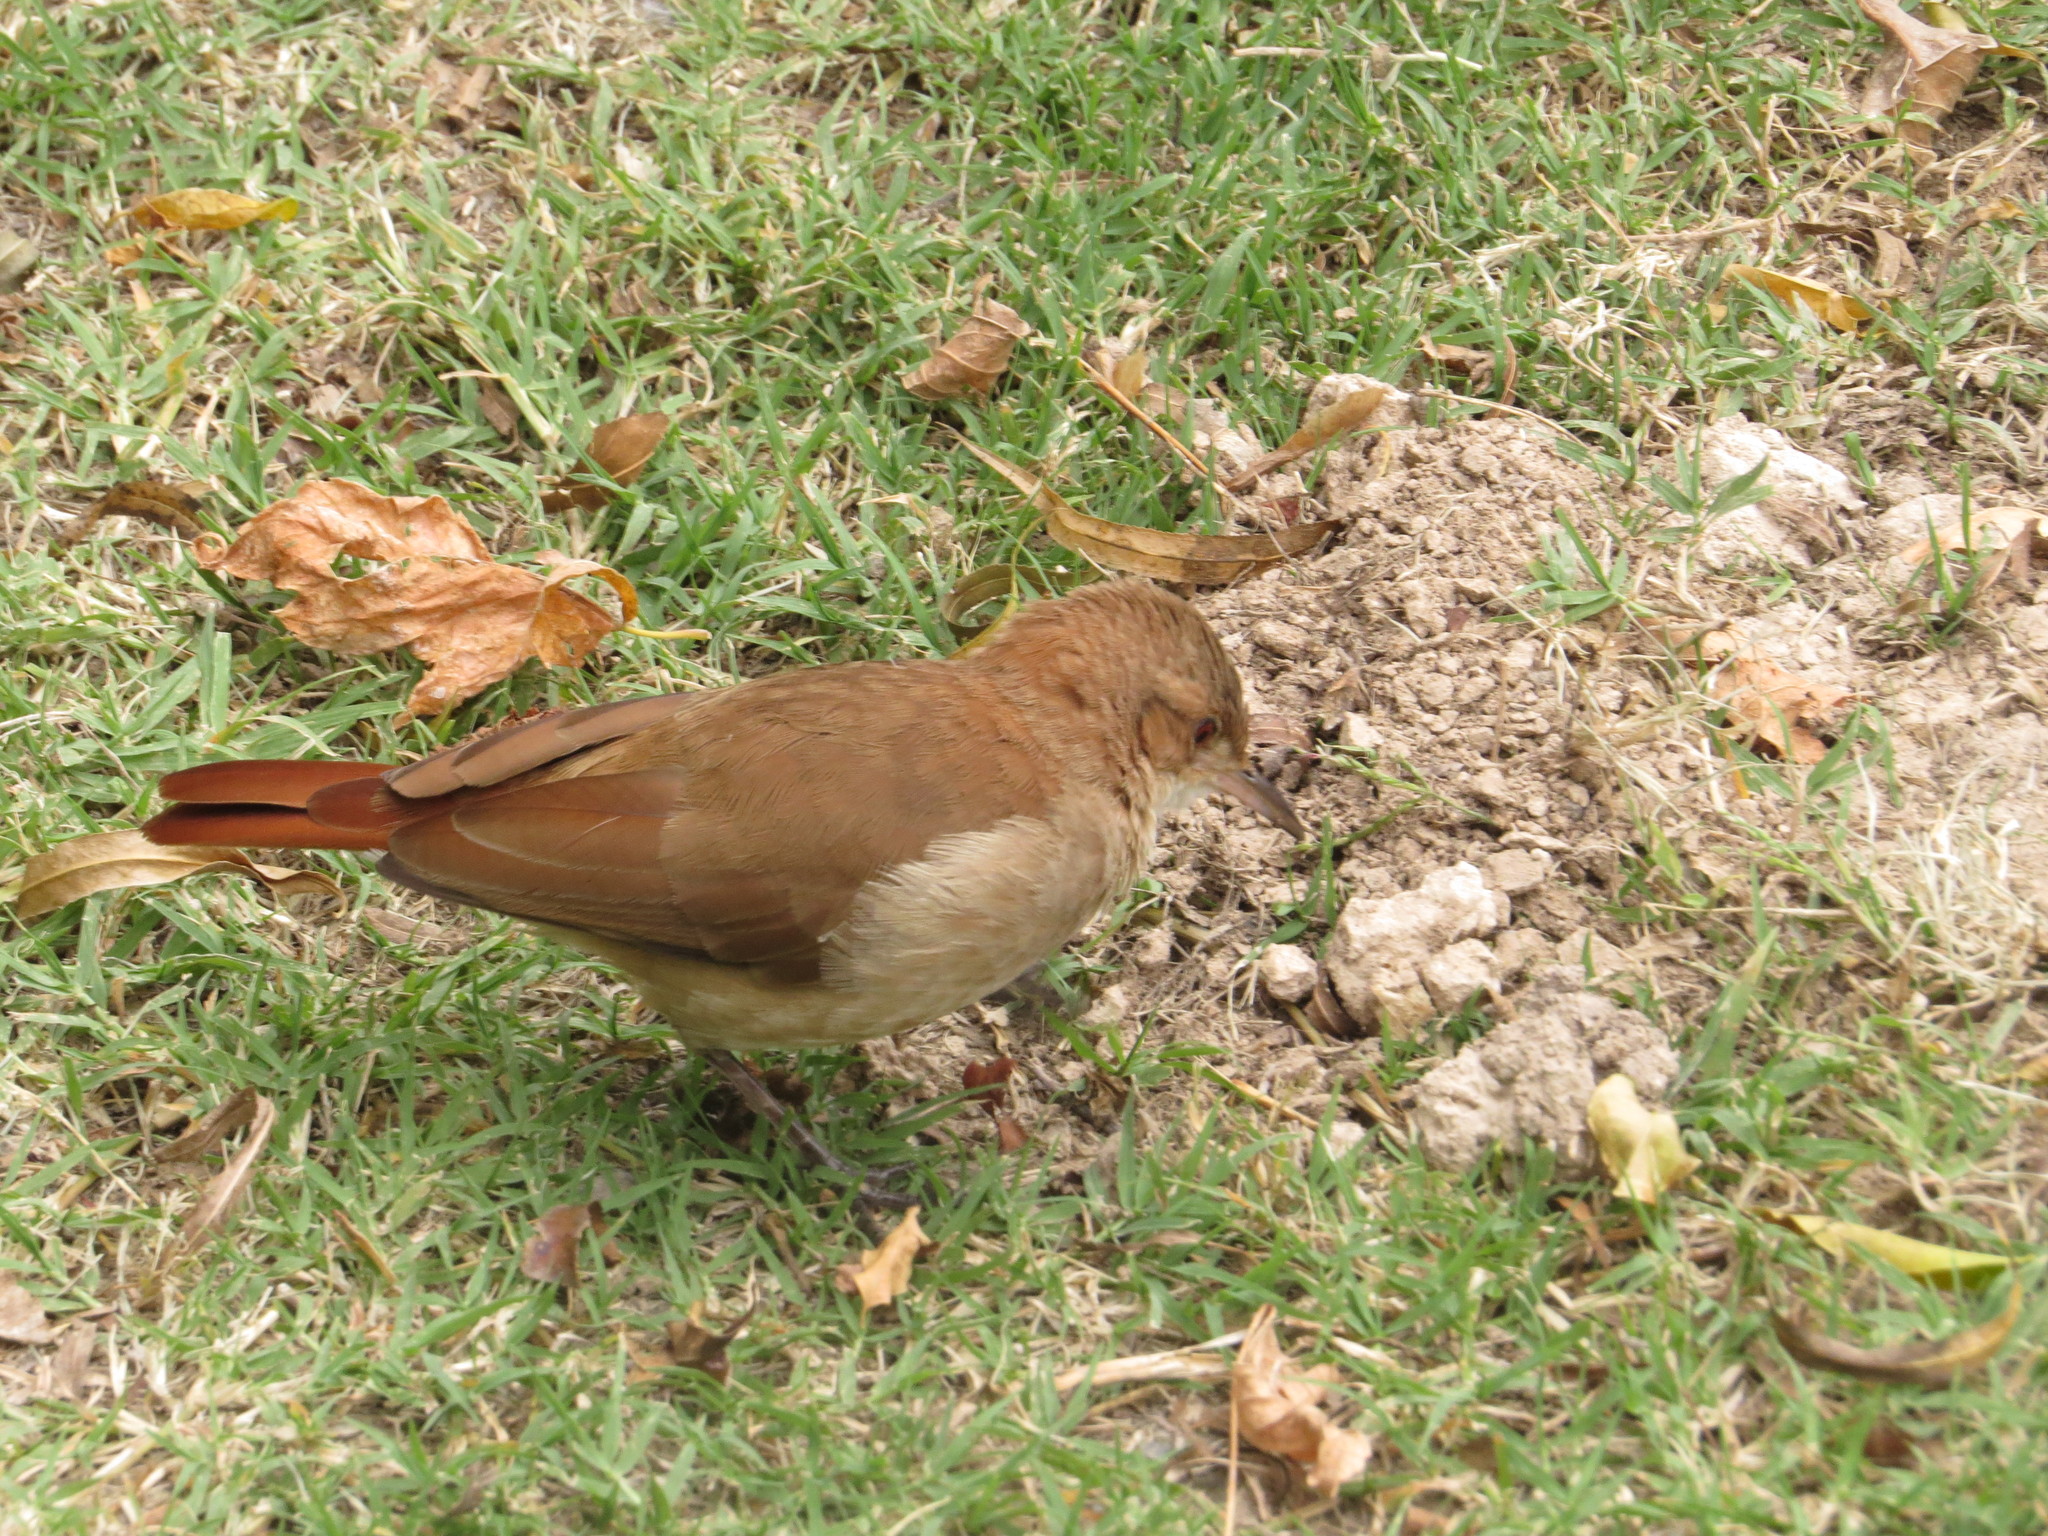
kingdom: Animalia
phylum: Chordata
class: Aves
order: Passeriformes
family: Furnariidae
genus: Furnarius
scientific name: Furnarius rufus
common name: Rufous hornero
